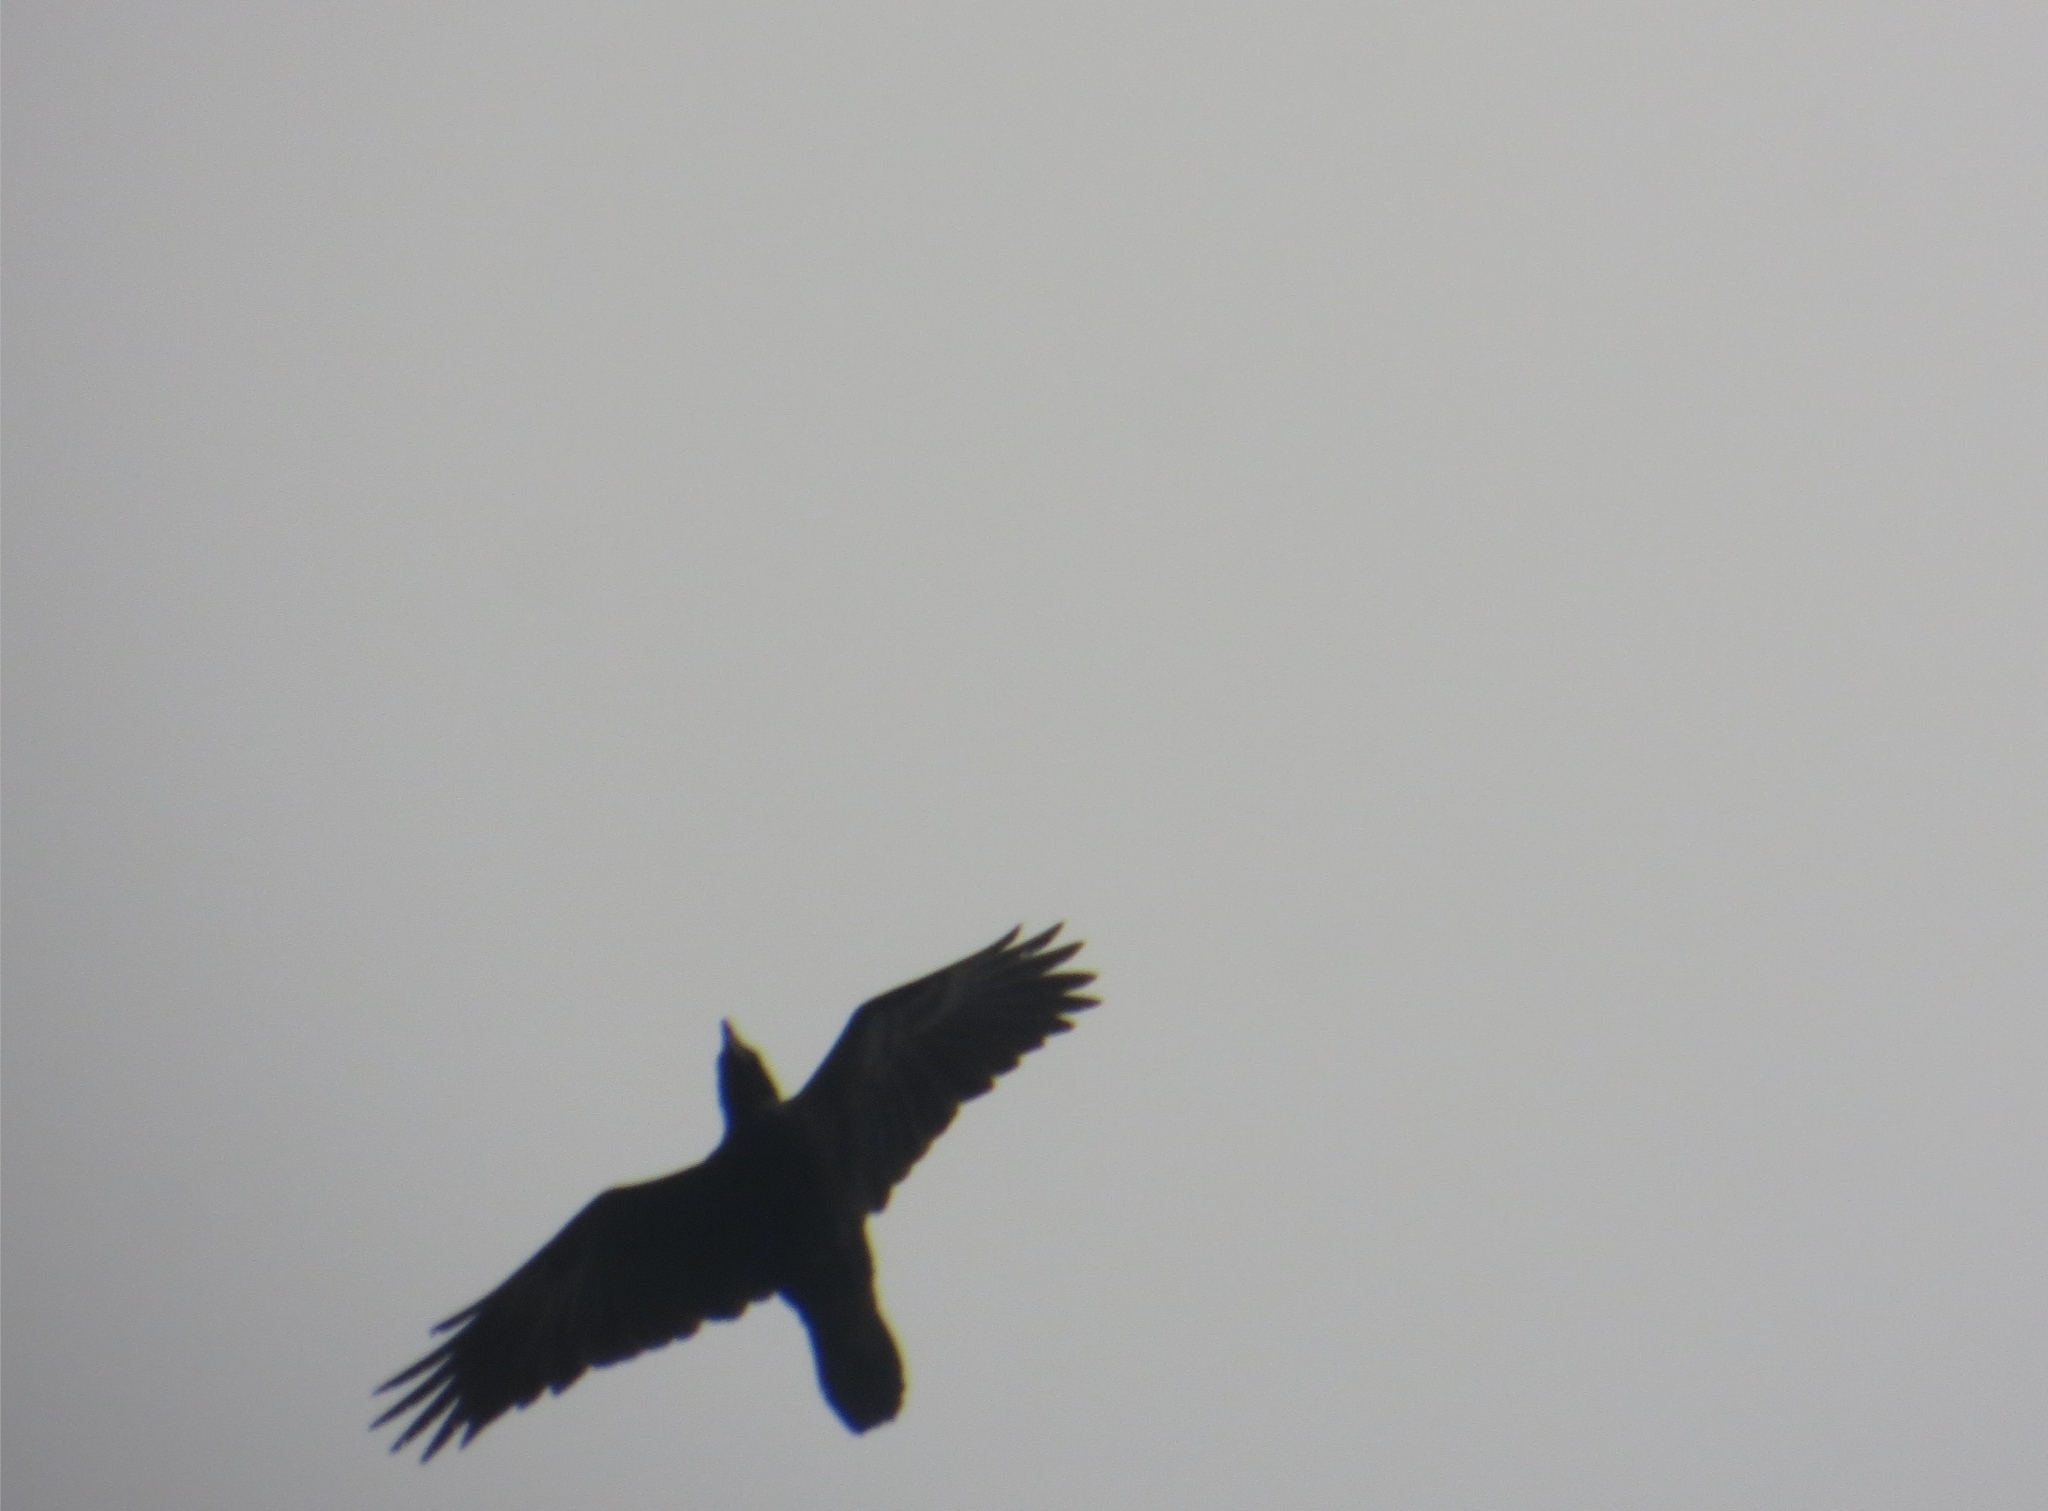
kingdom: Animalia
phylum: Chordata
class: Aves
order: Passeriformes
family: Corvidae
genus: Corvus
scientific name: Corvus corax
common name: Common raven
